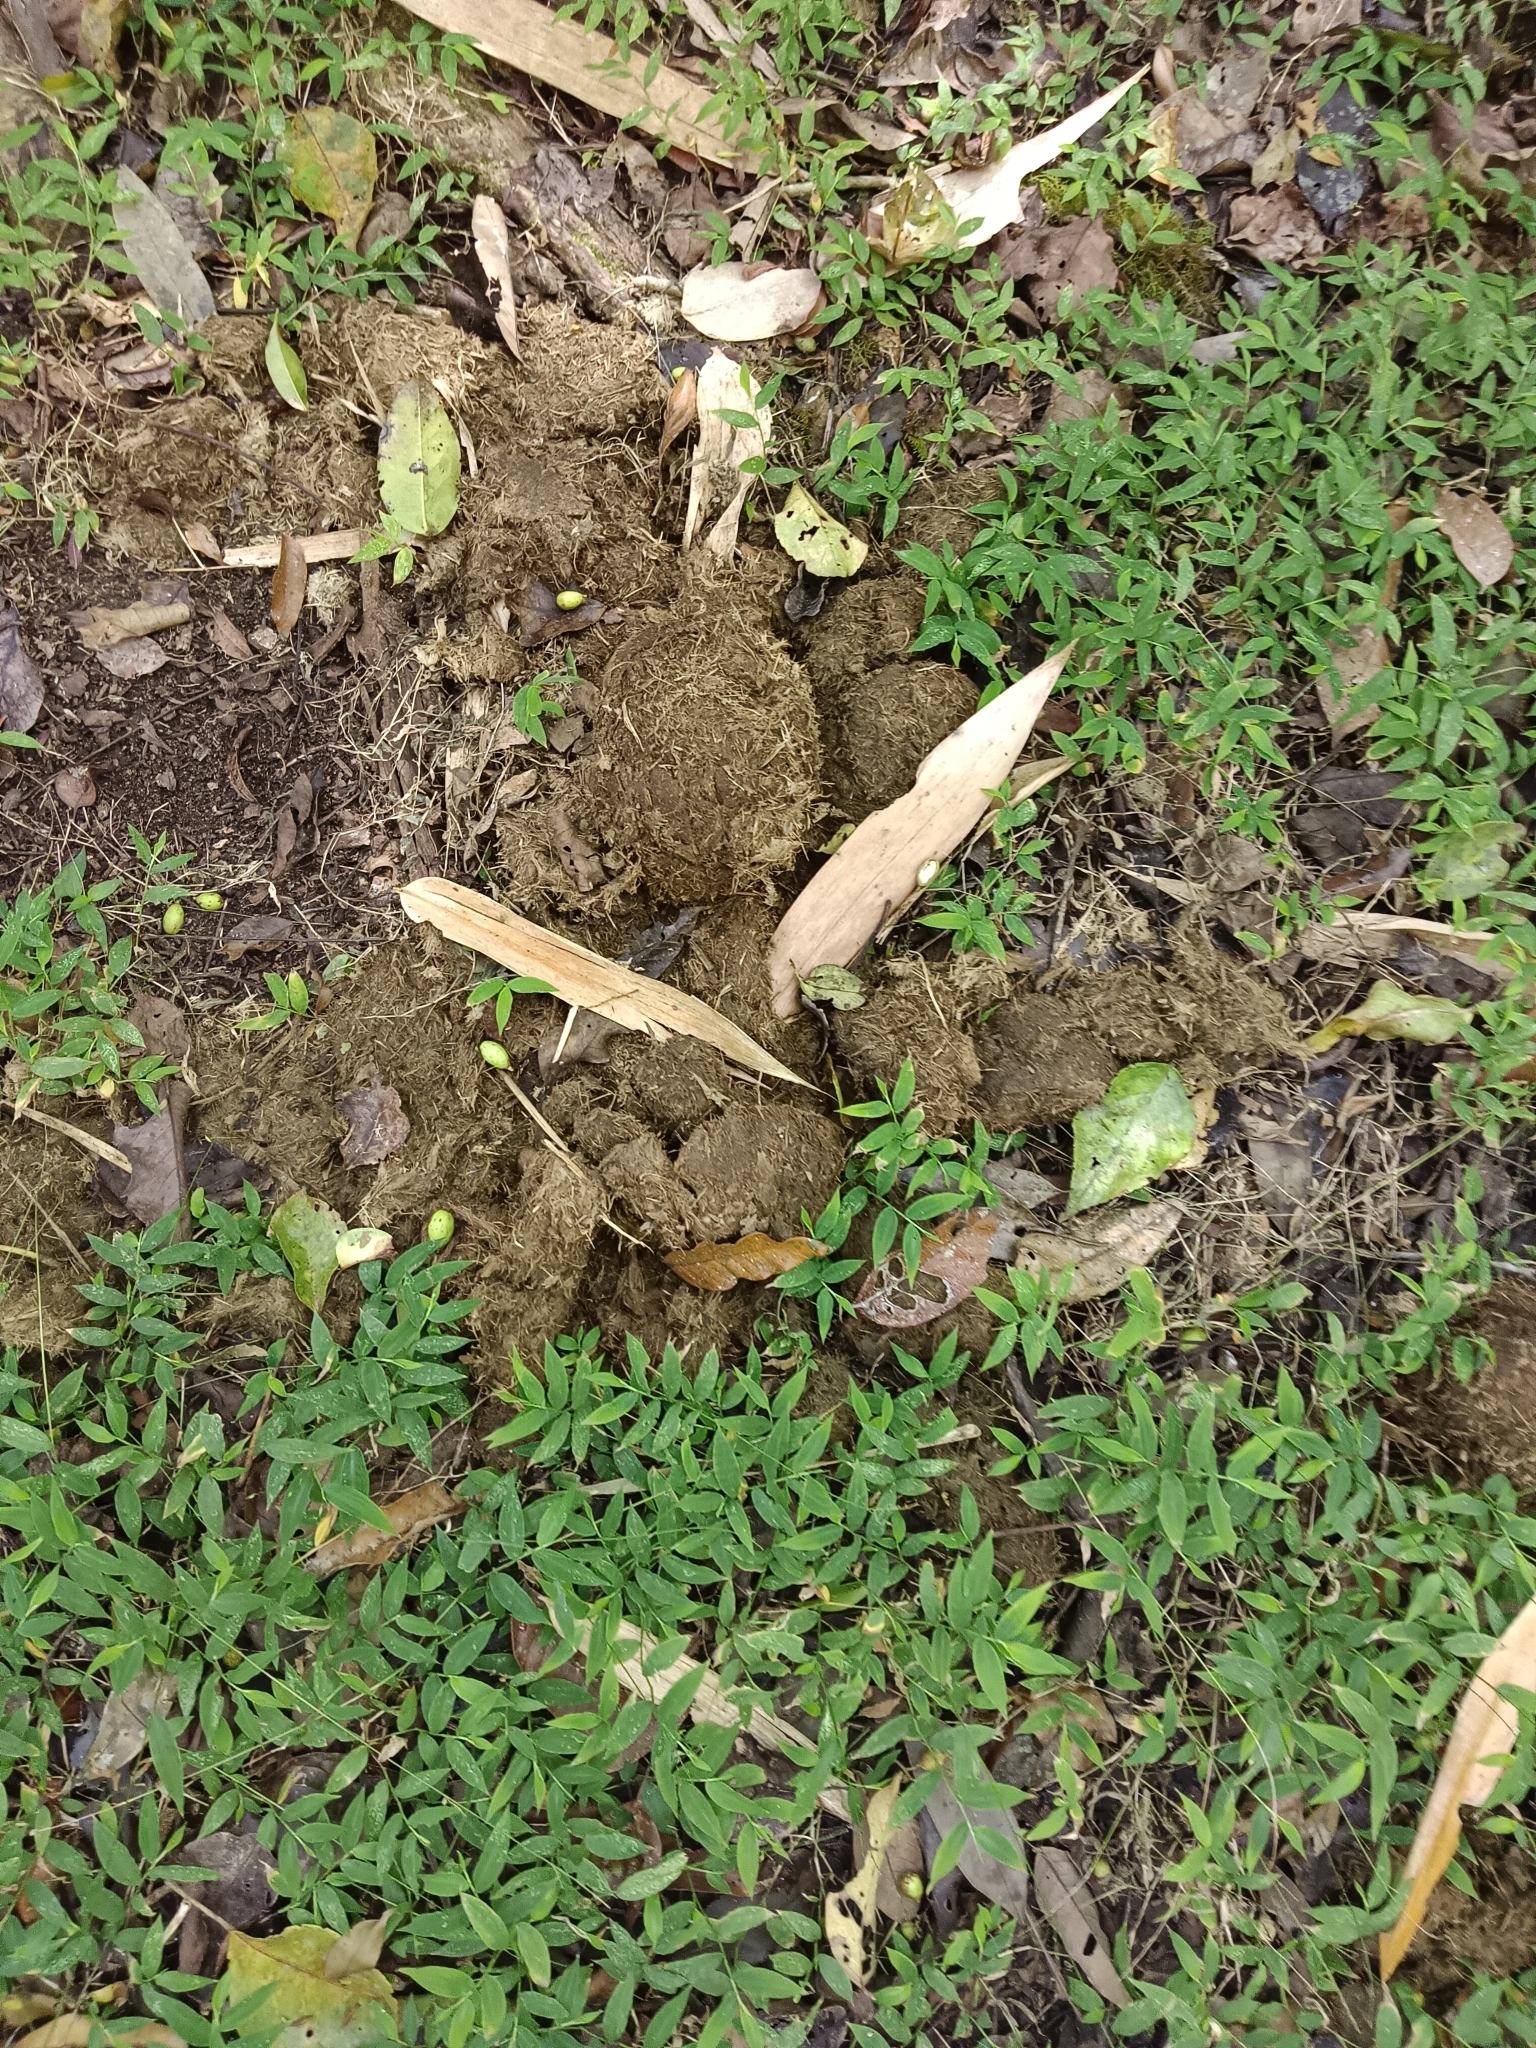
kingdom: Animalia
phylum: Chordata
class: Mammalia
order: Proboscidea
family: Elephantidae
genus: Elephas
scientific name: Elephas maximus
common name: Asian elephant
